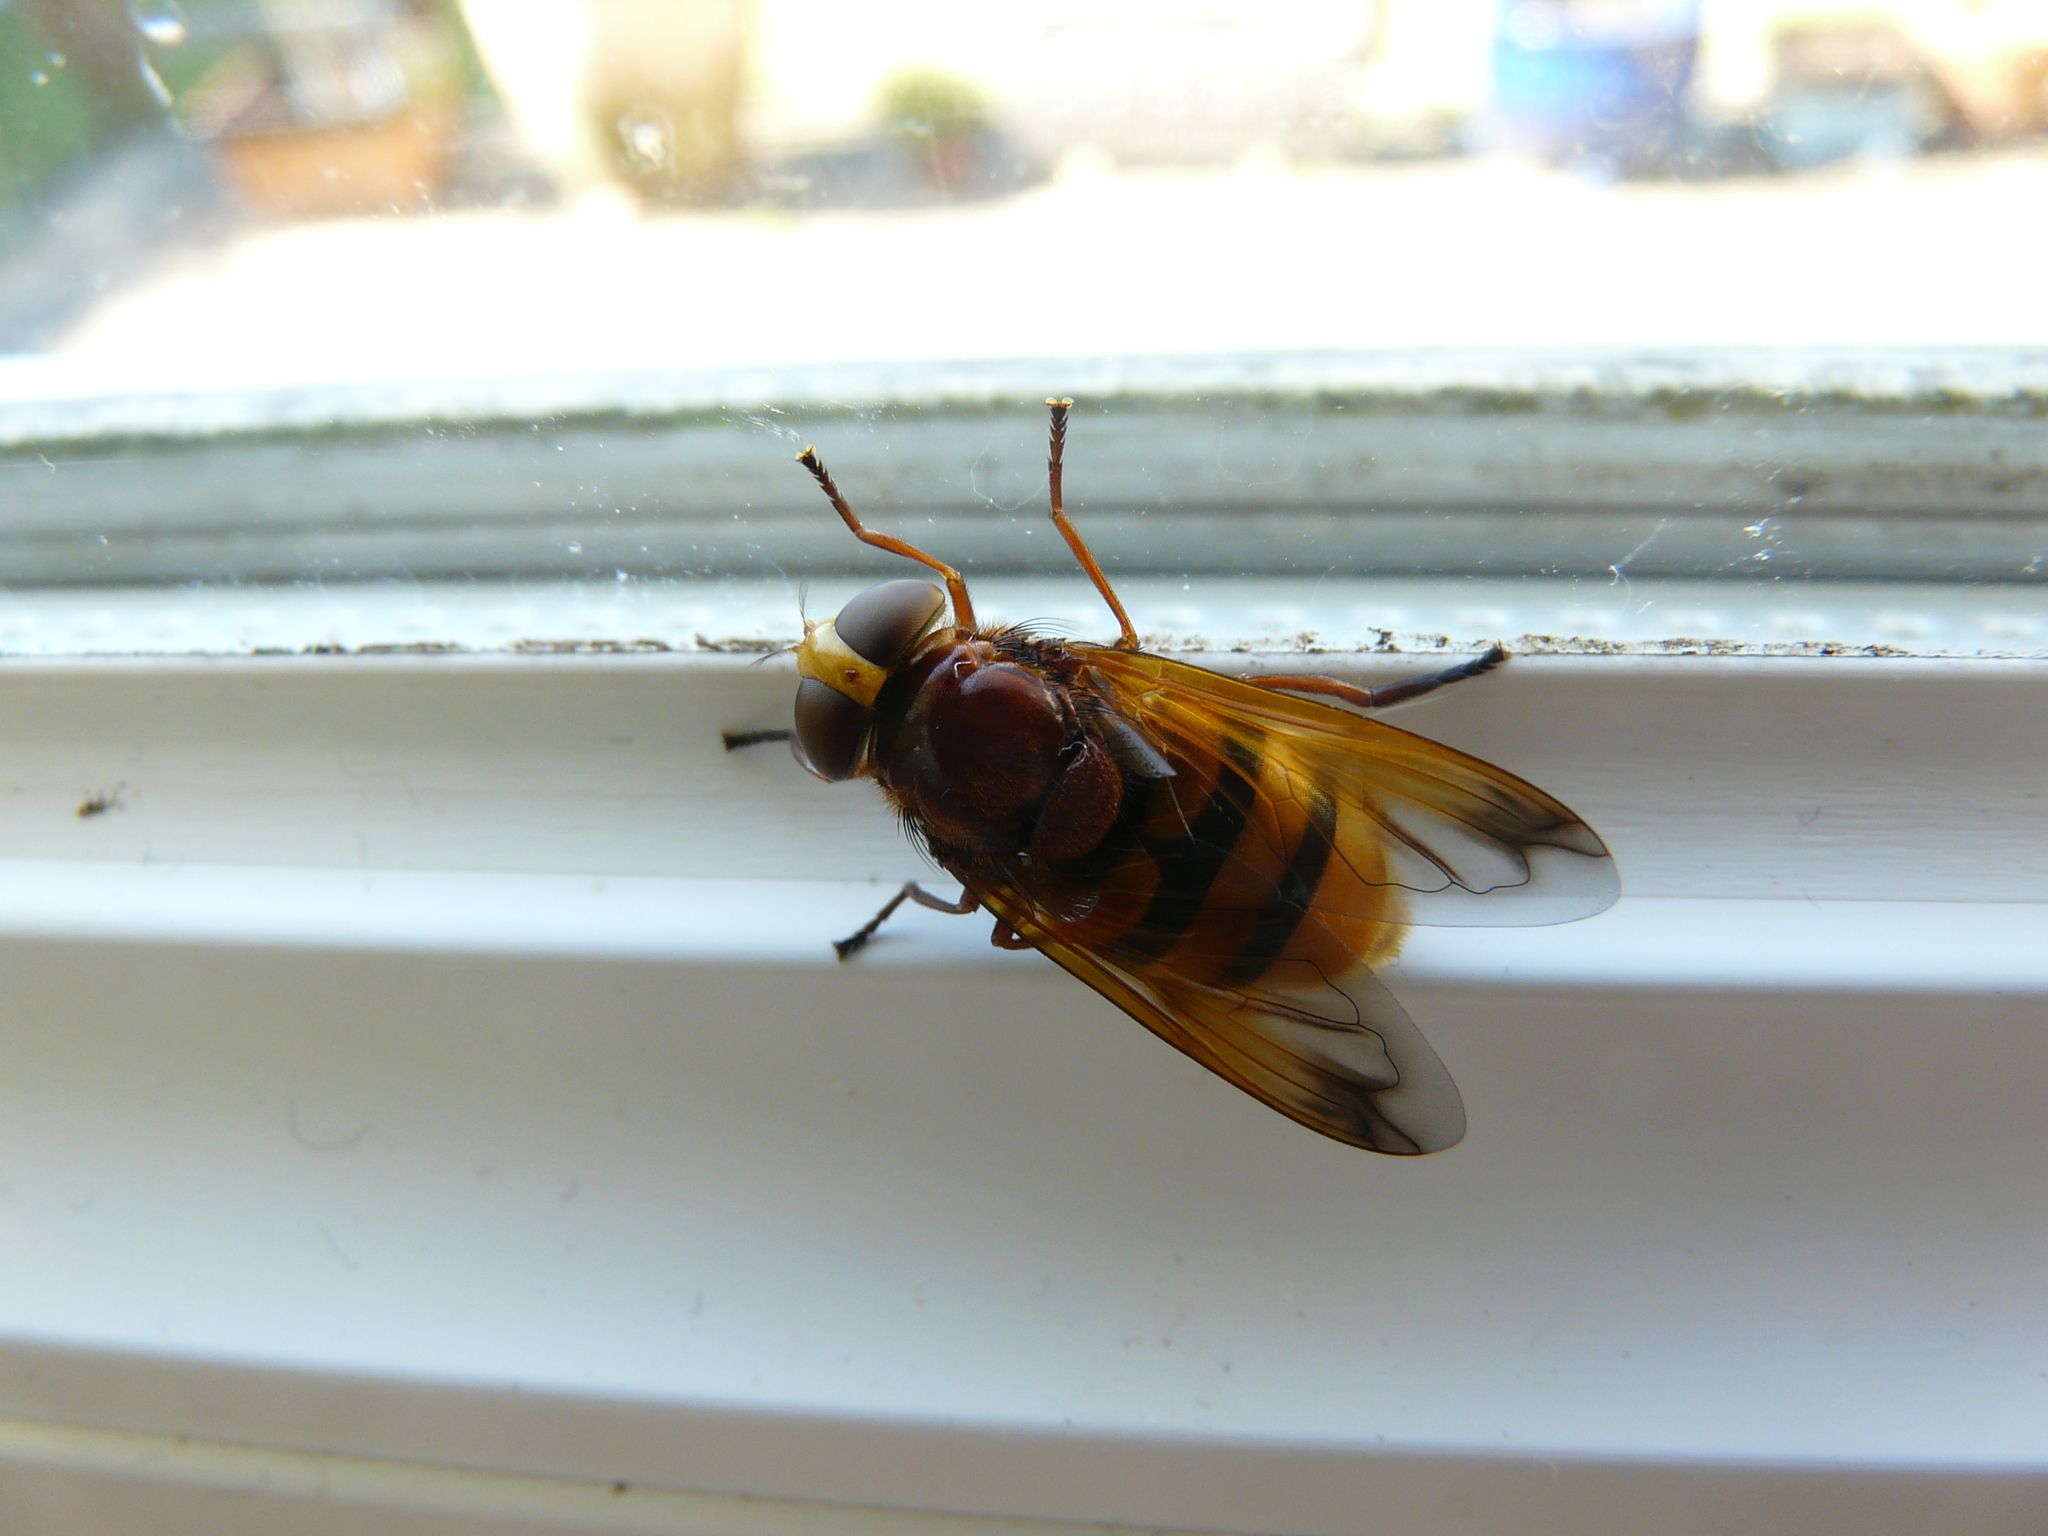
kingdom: Animalia
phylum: Arthropoda
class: Insecta
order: Diptera
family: Syrphidae
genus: Volucella
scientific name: Volucella zonaria
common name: Hornet hoverfly
